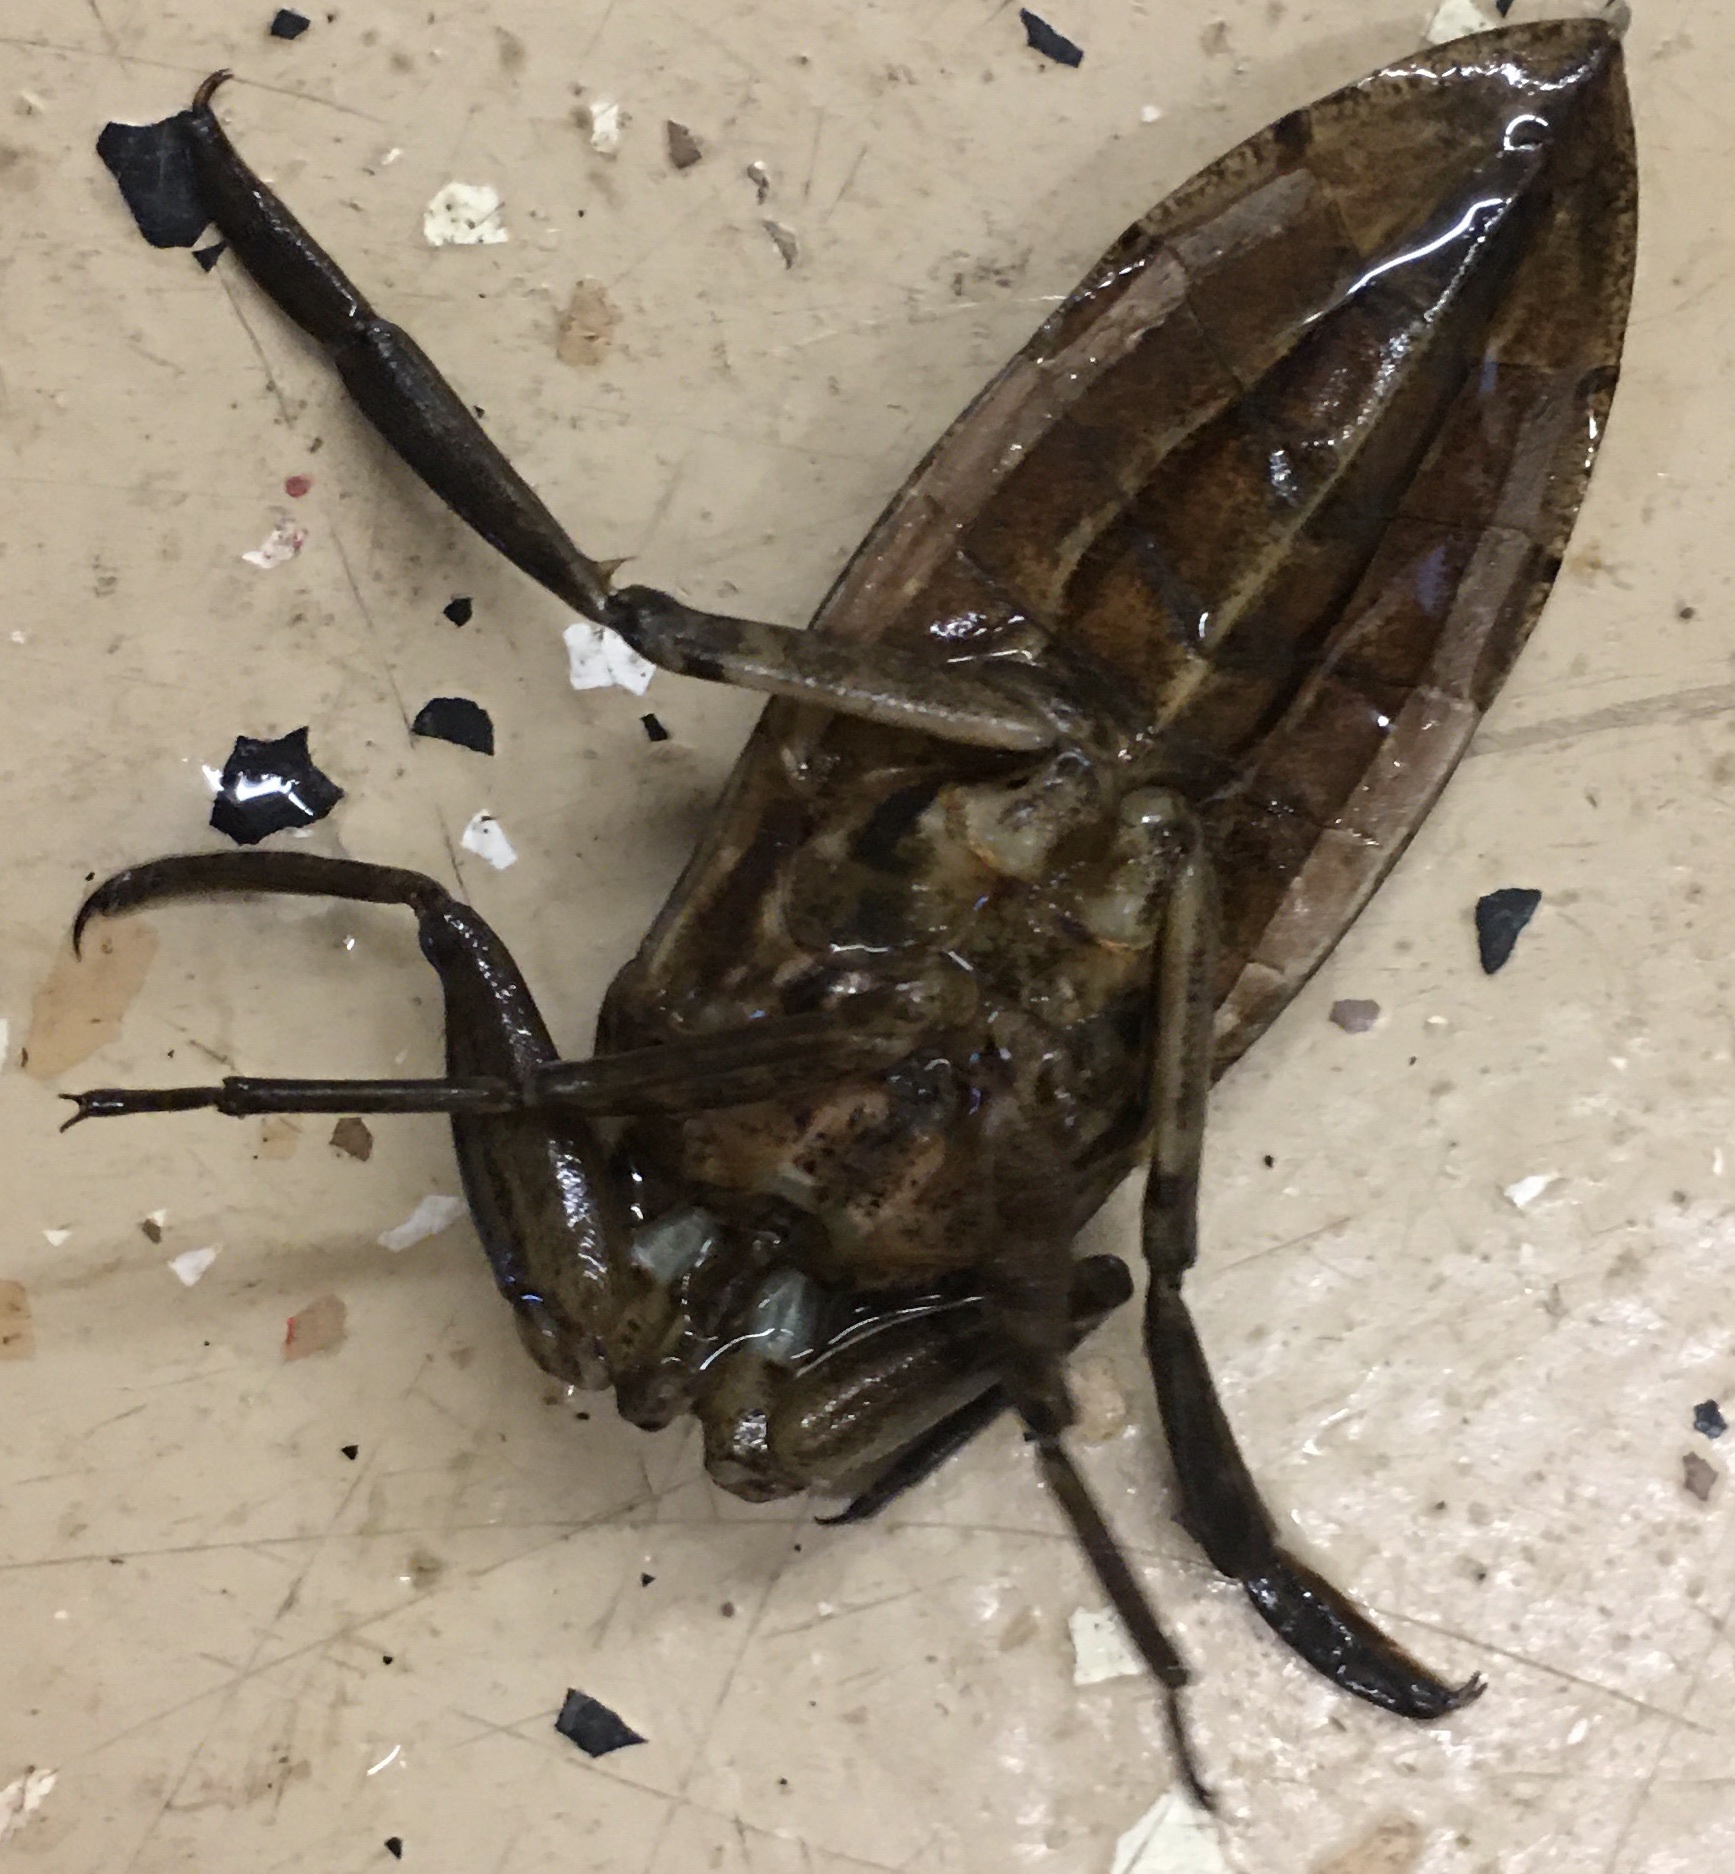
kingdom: Animalia
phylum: Arthropoda
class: Insecta
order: Hemiptera
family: Belostomatidae
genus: Lethocerus
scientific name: Lethocerus americanus
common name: Giant water bug
